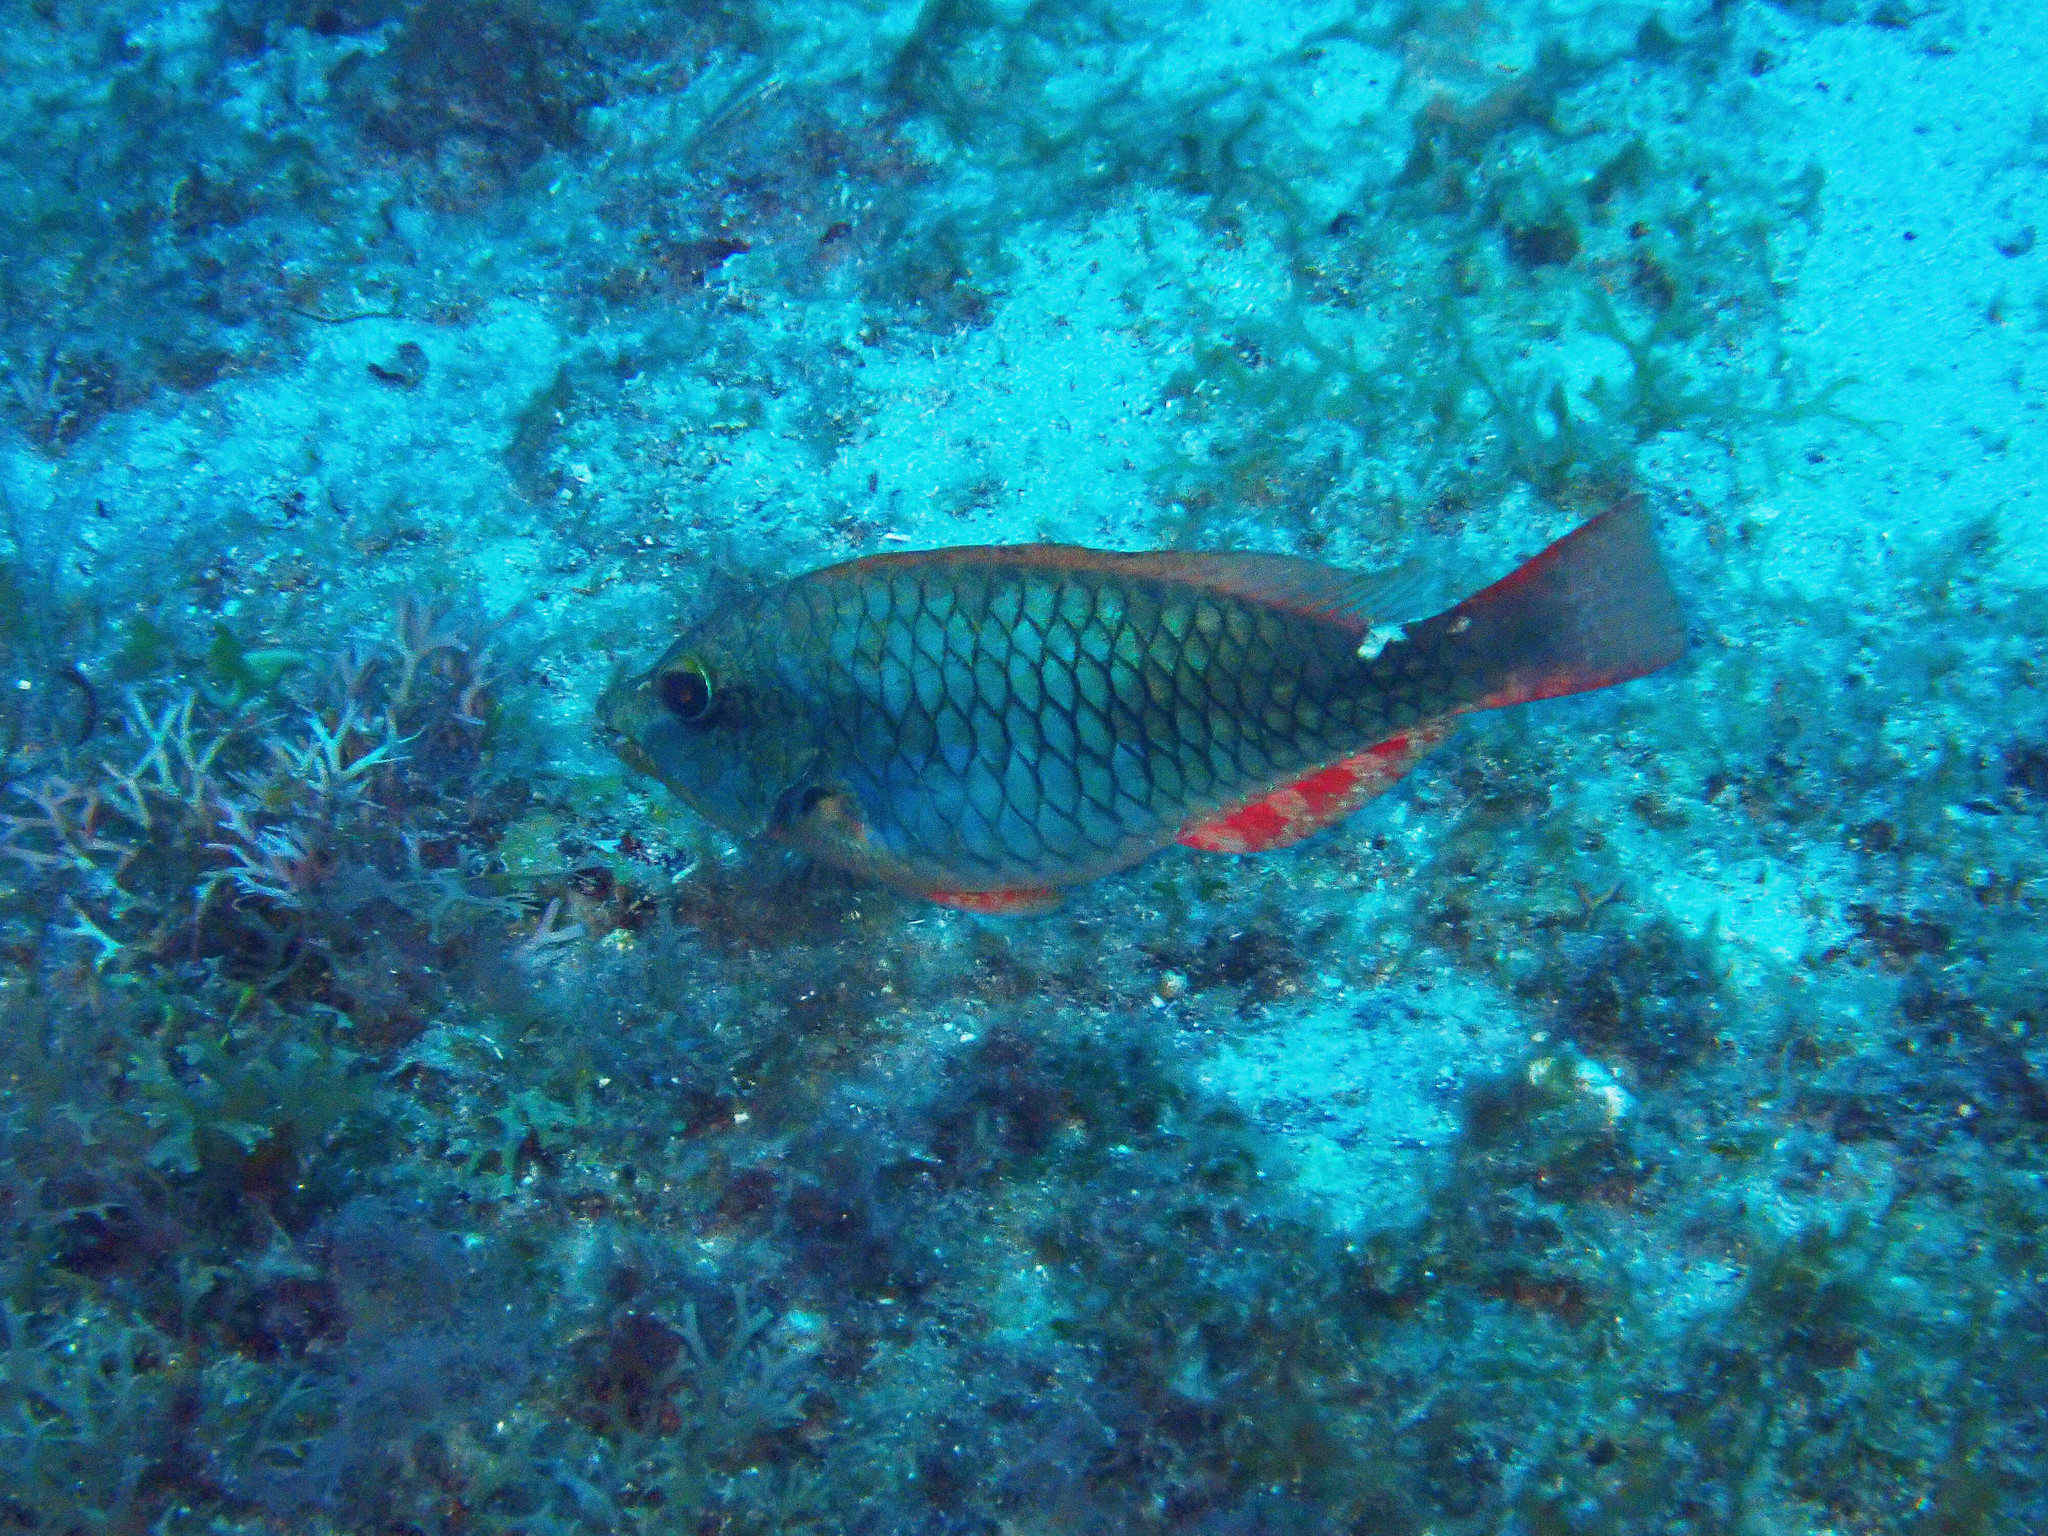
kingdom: Animalia
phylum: Chordata
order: Perciformes
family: Scaridae
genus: Sparisoma
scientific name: Sparisoma aurofrenatum
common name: Redband parrotfish
